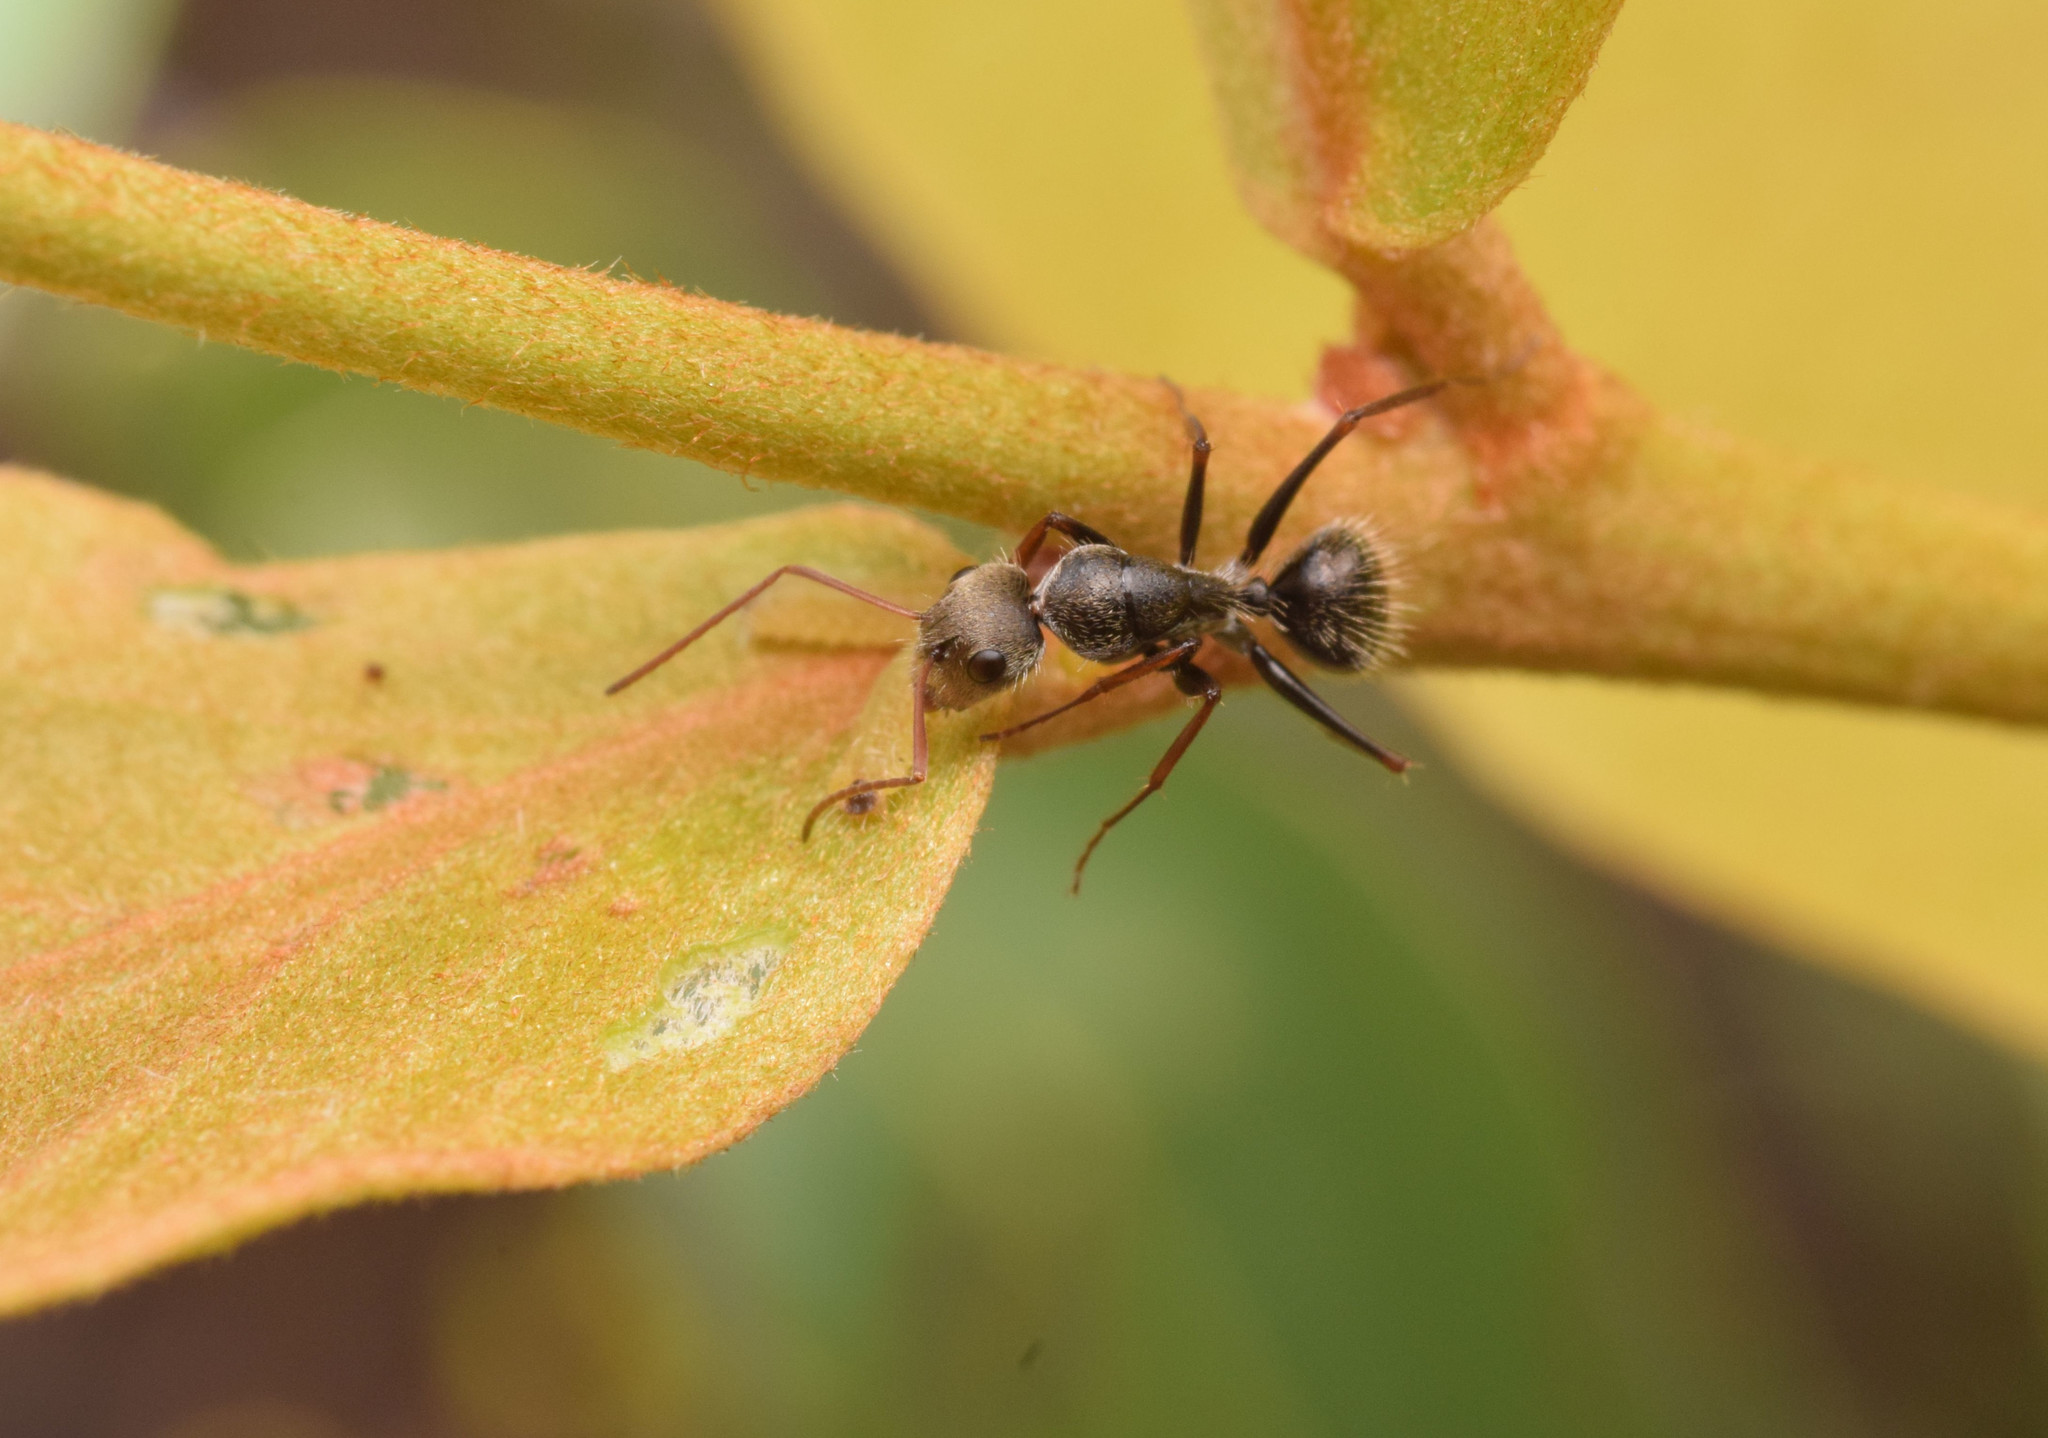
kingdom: Animalia
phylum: Arthropoda
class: Insecta
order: Hymenoptera
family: Formicidae
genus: Camponotus
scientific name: Camponotus blandus
